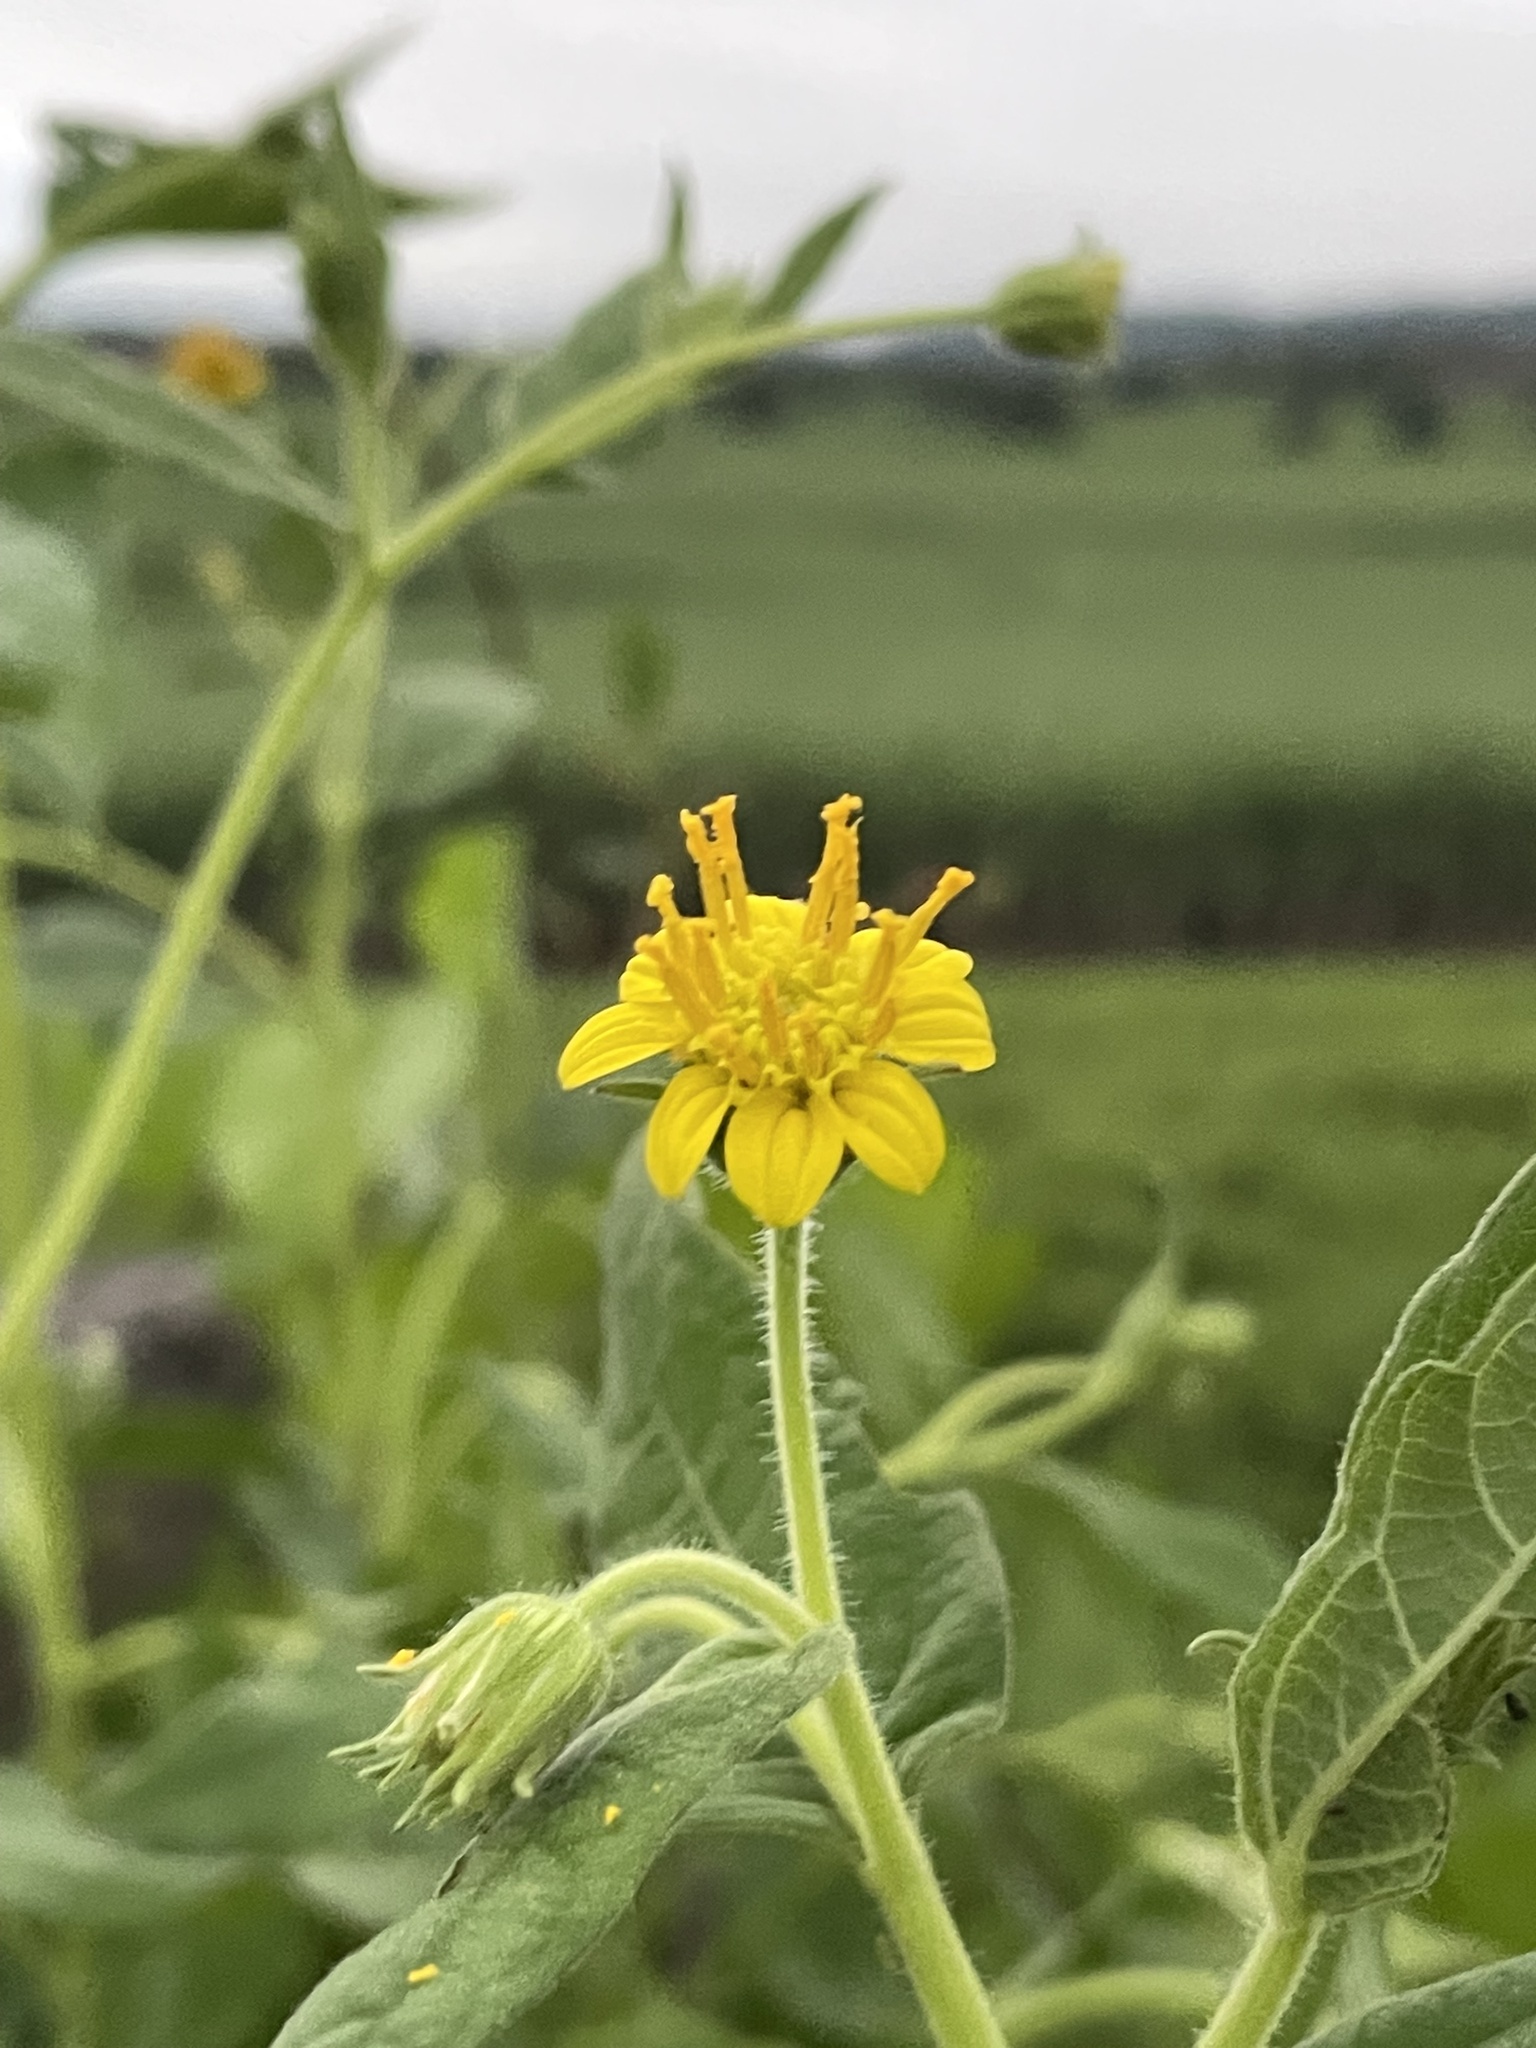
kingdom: Plantae
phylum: Tracheophyta
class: Magnoliopsida
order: Asterales
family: Asteraceae
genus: Simsia
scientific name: Simsia foetida
